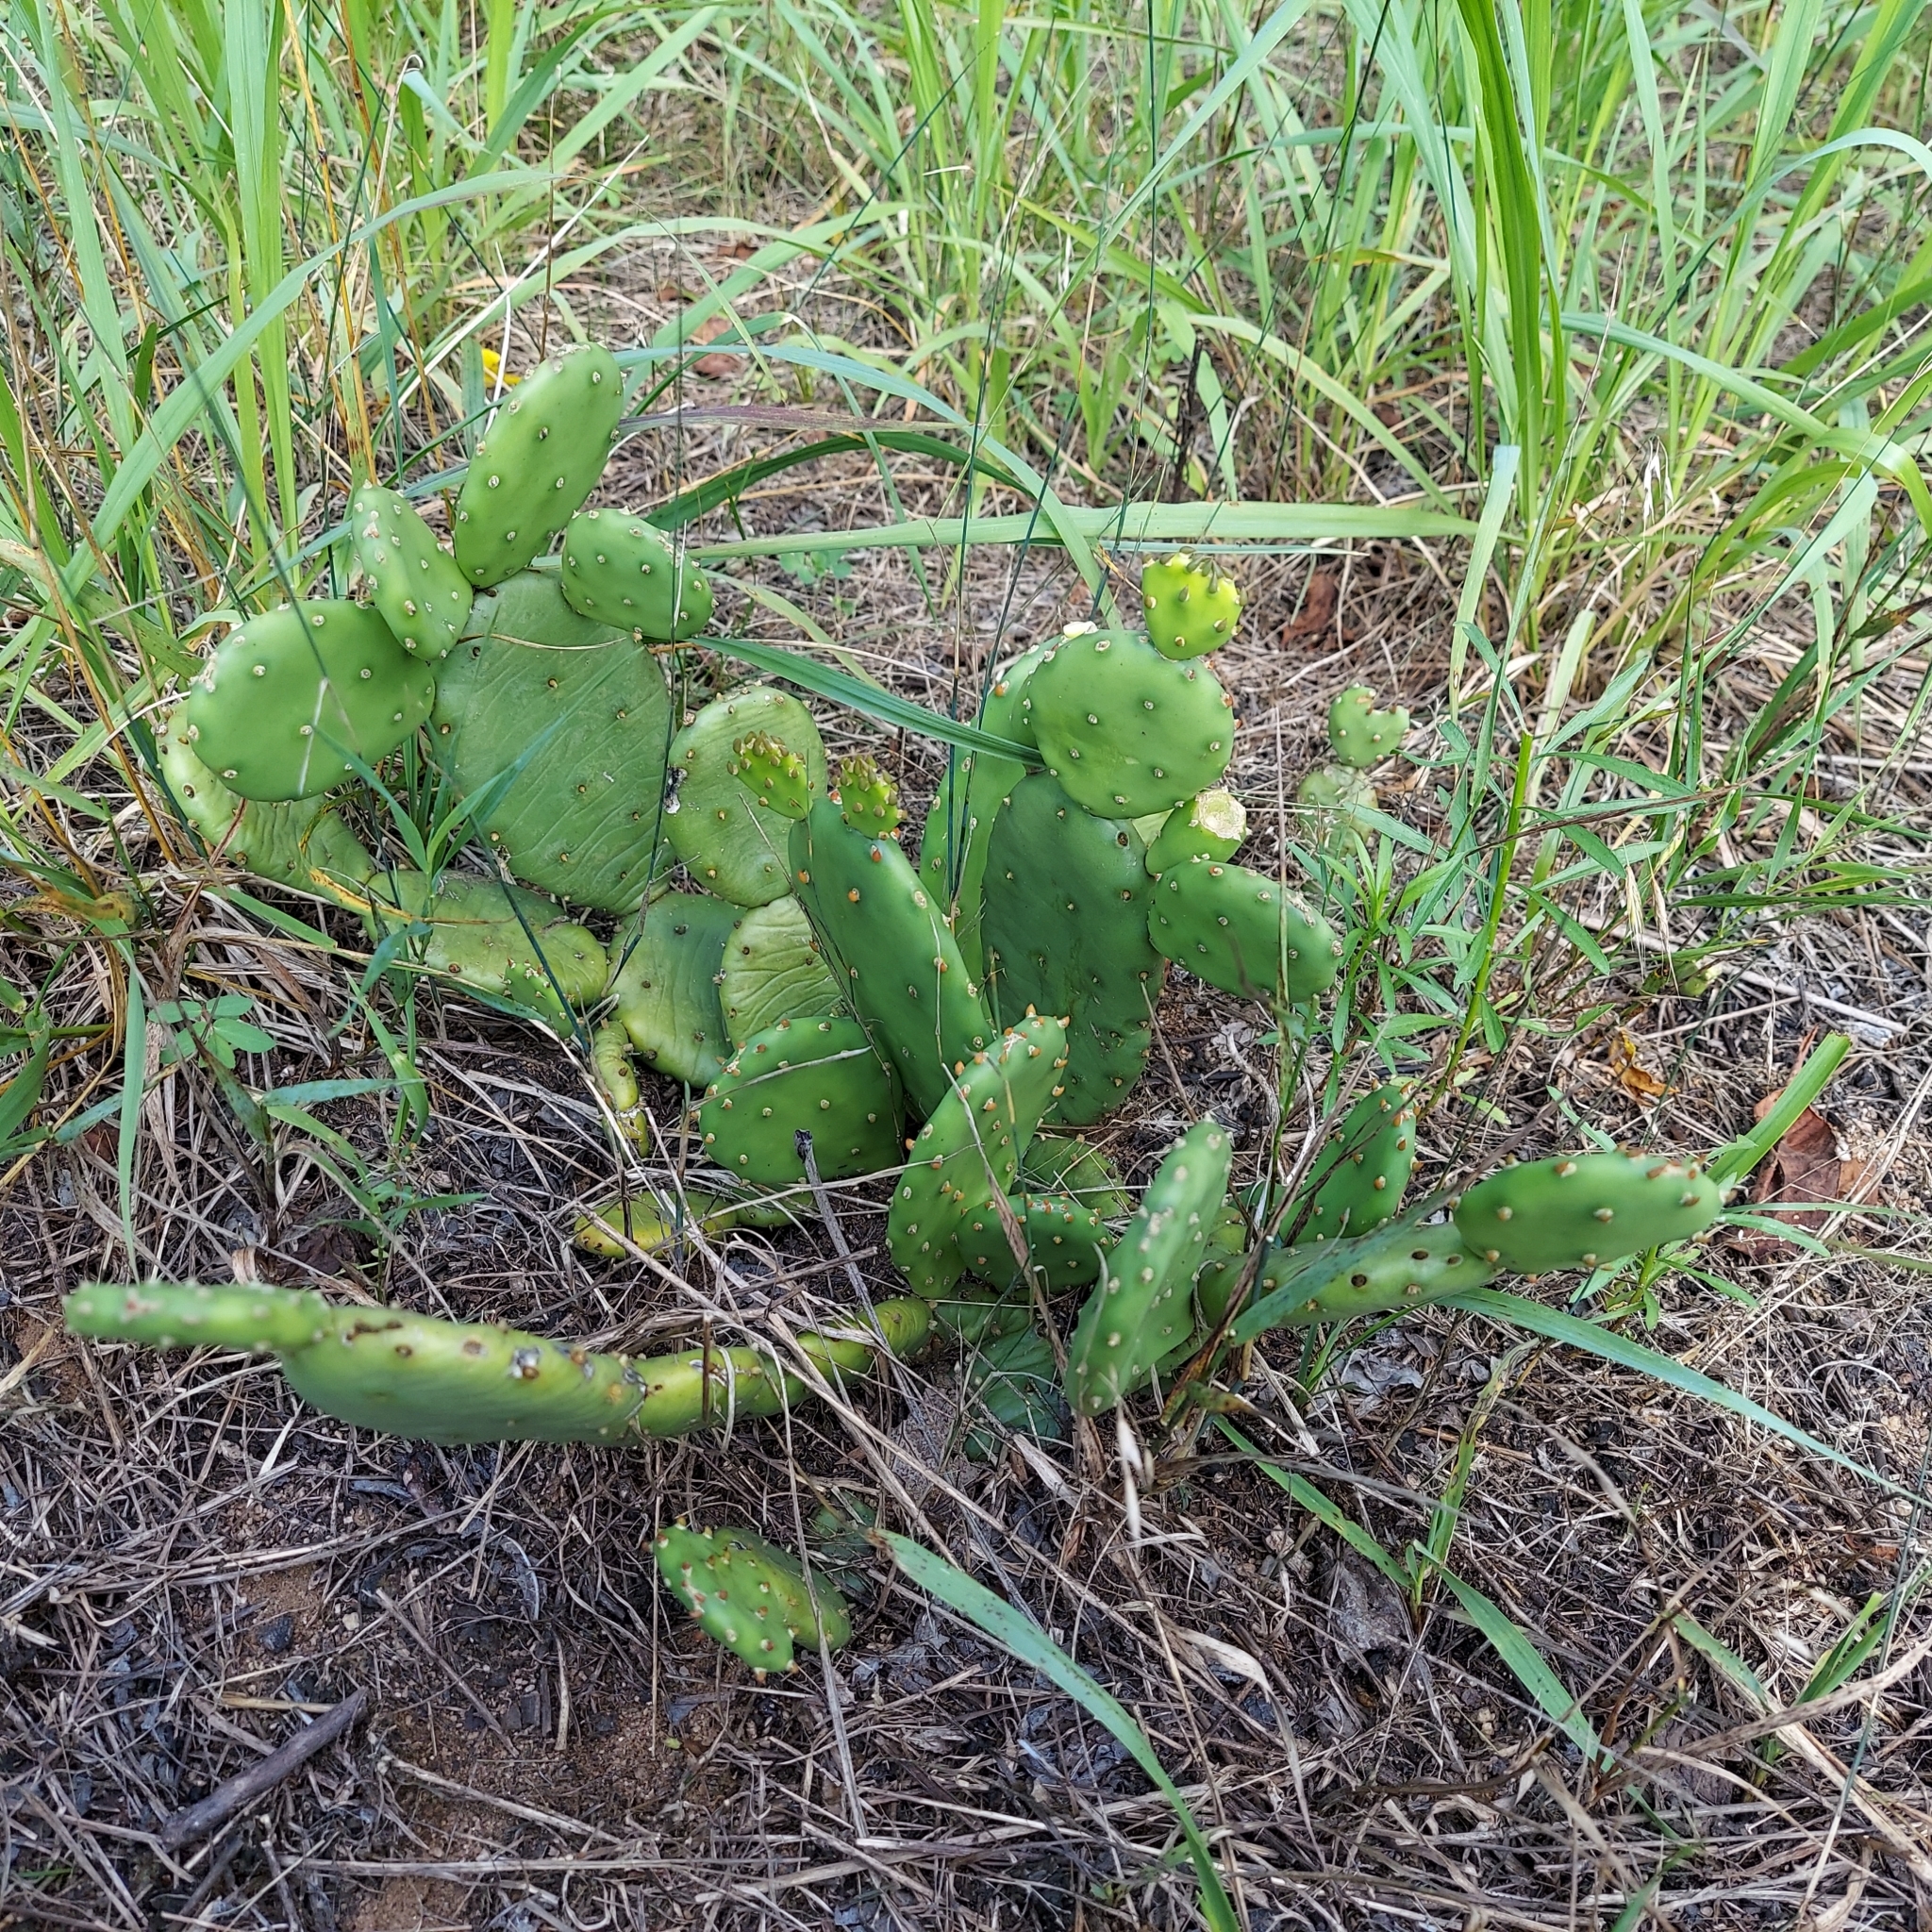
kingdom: Plantae
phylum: Tracheophyta
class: Magnoliopsida
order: Caryophyllales
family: Cactaceae
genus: Opuntia
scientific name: Opuntia humifusa
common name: Eastern prickly-pear
